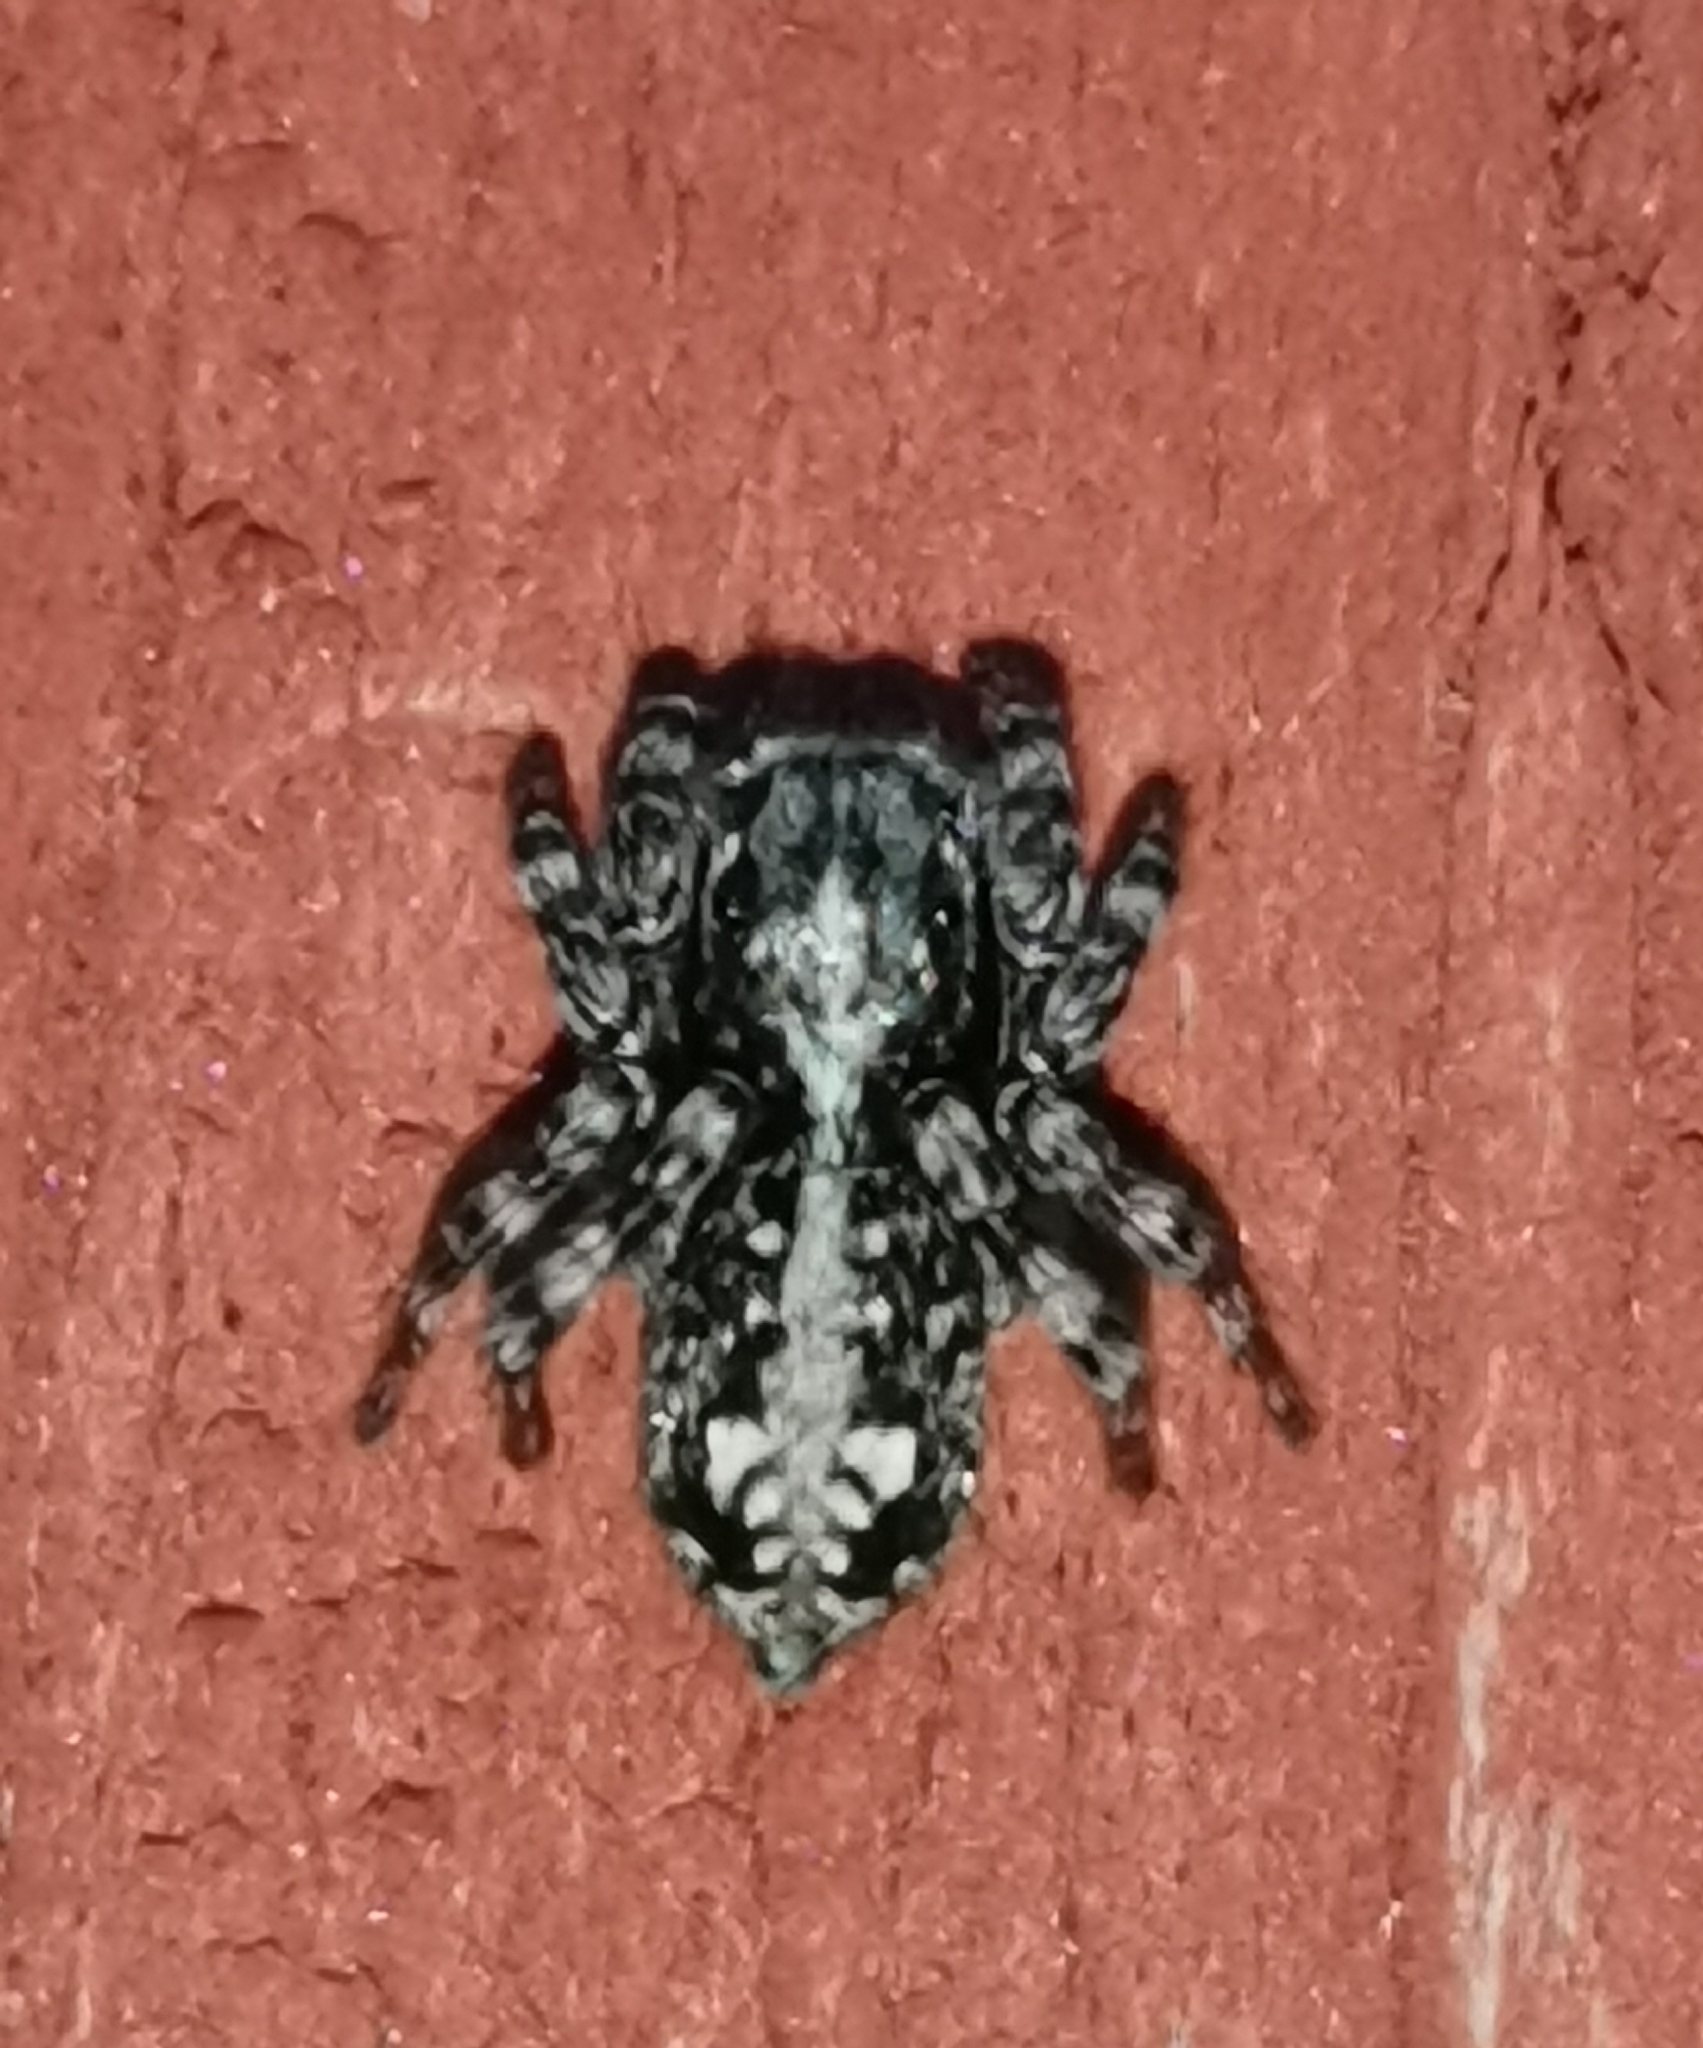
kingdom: Animalia
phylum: Arthropoda
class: Arachnida
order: Araneae
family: Salticidae
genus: Attulus
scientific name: Attulus terebratus
